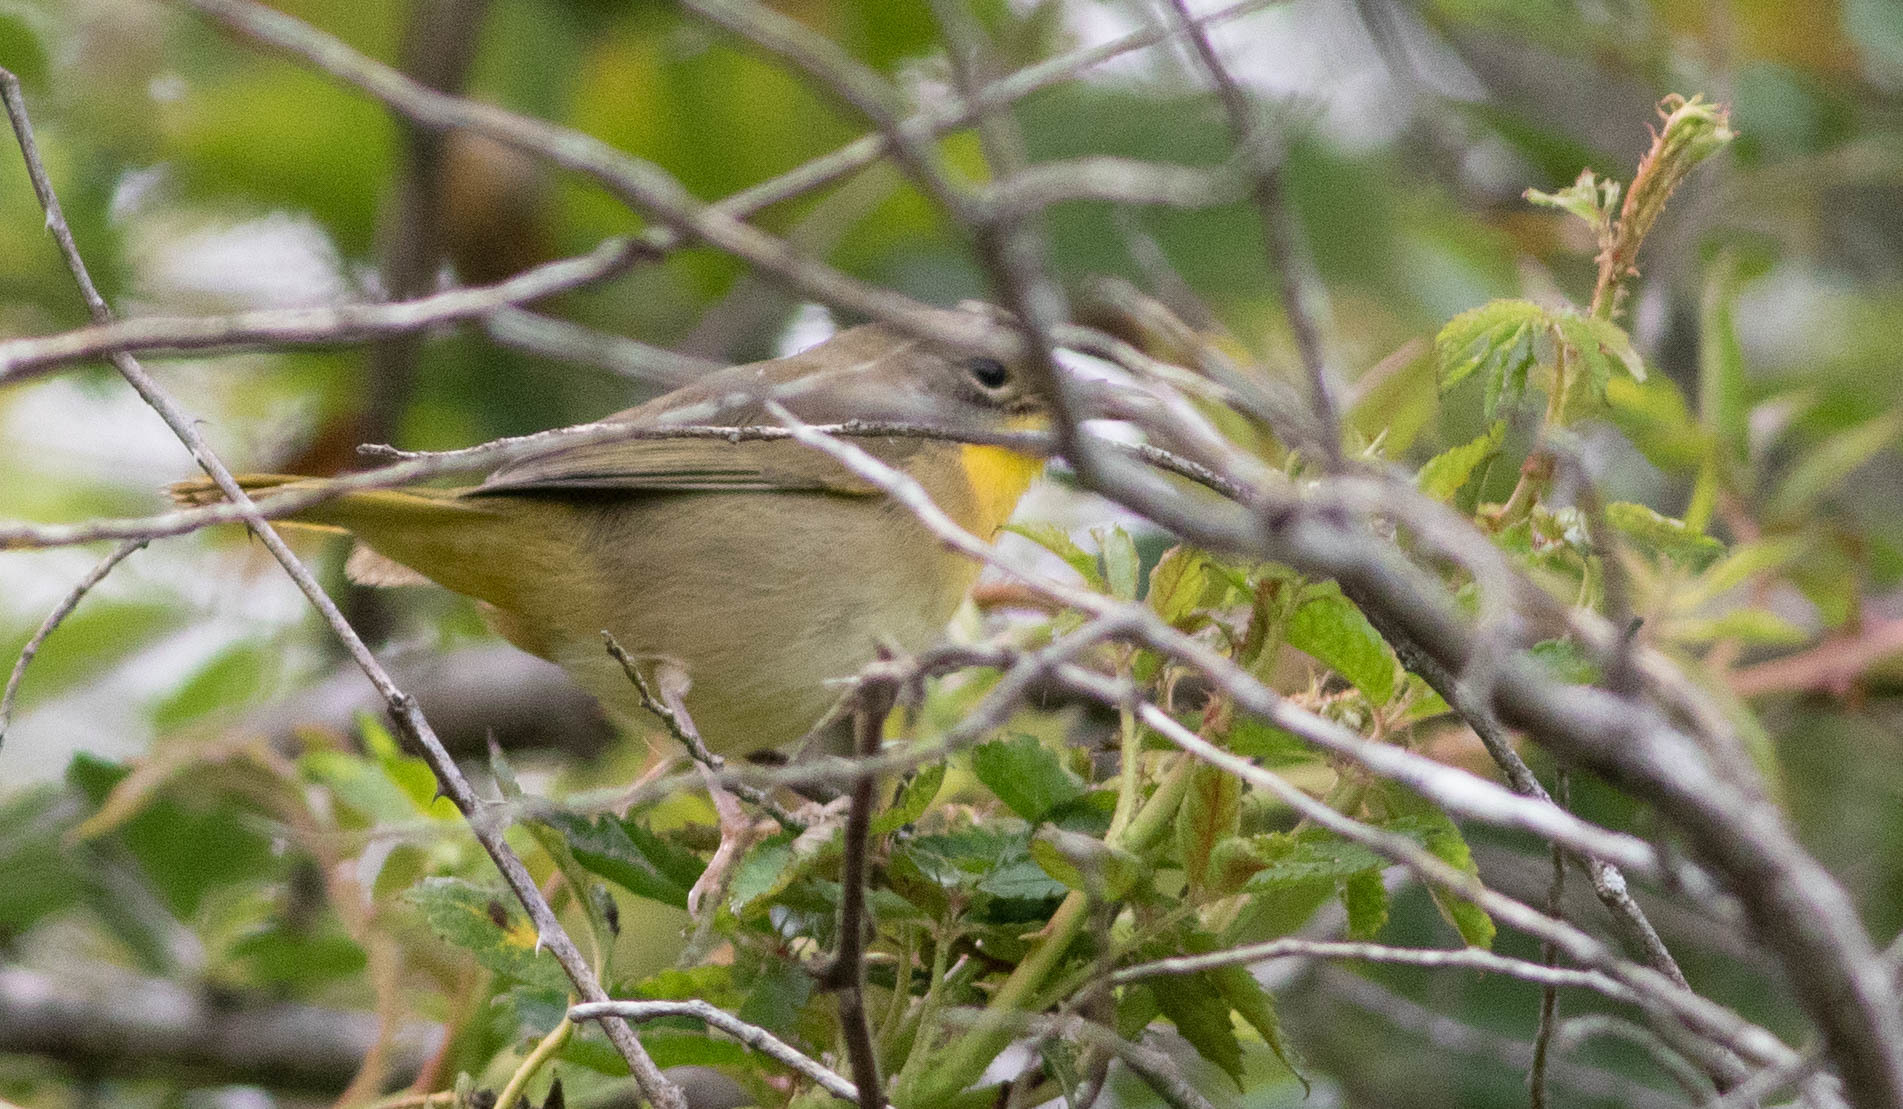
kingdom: Animalia
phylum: Chordata
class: Aves
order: Passeriformes
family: Parulidae
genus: Geothlypis
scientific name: Geothlypis trichas
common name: Common yellowthroat
